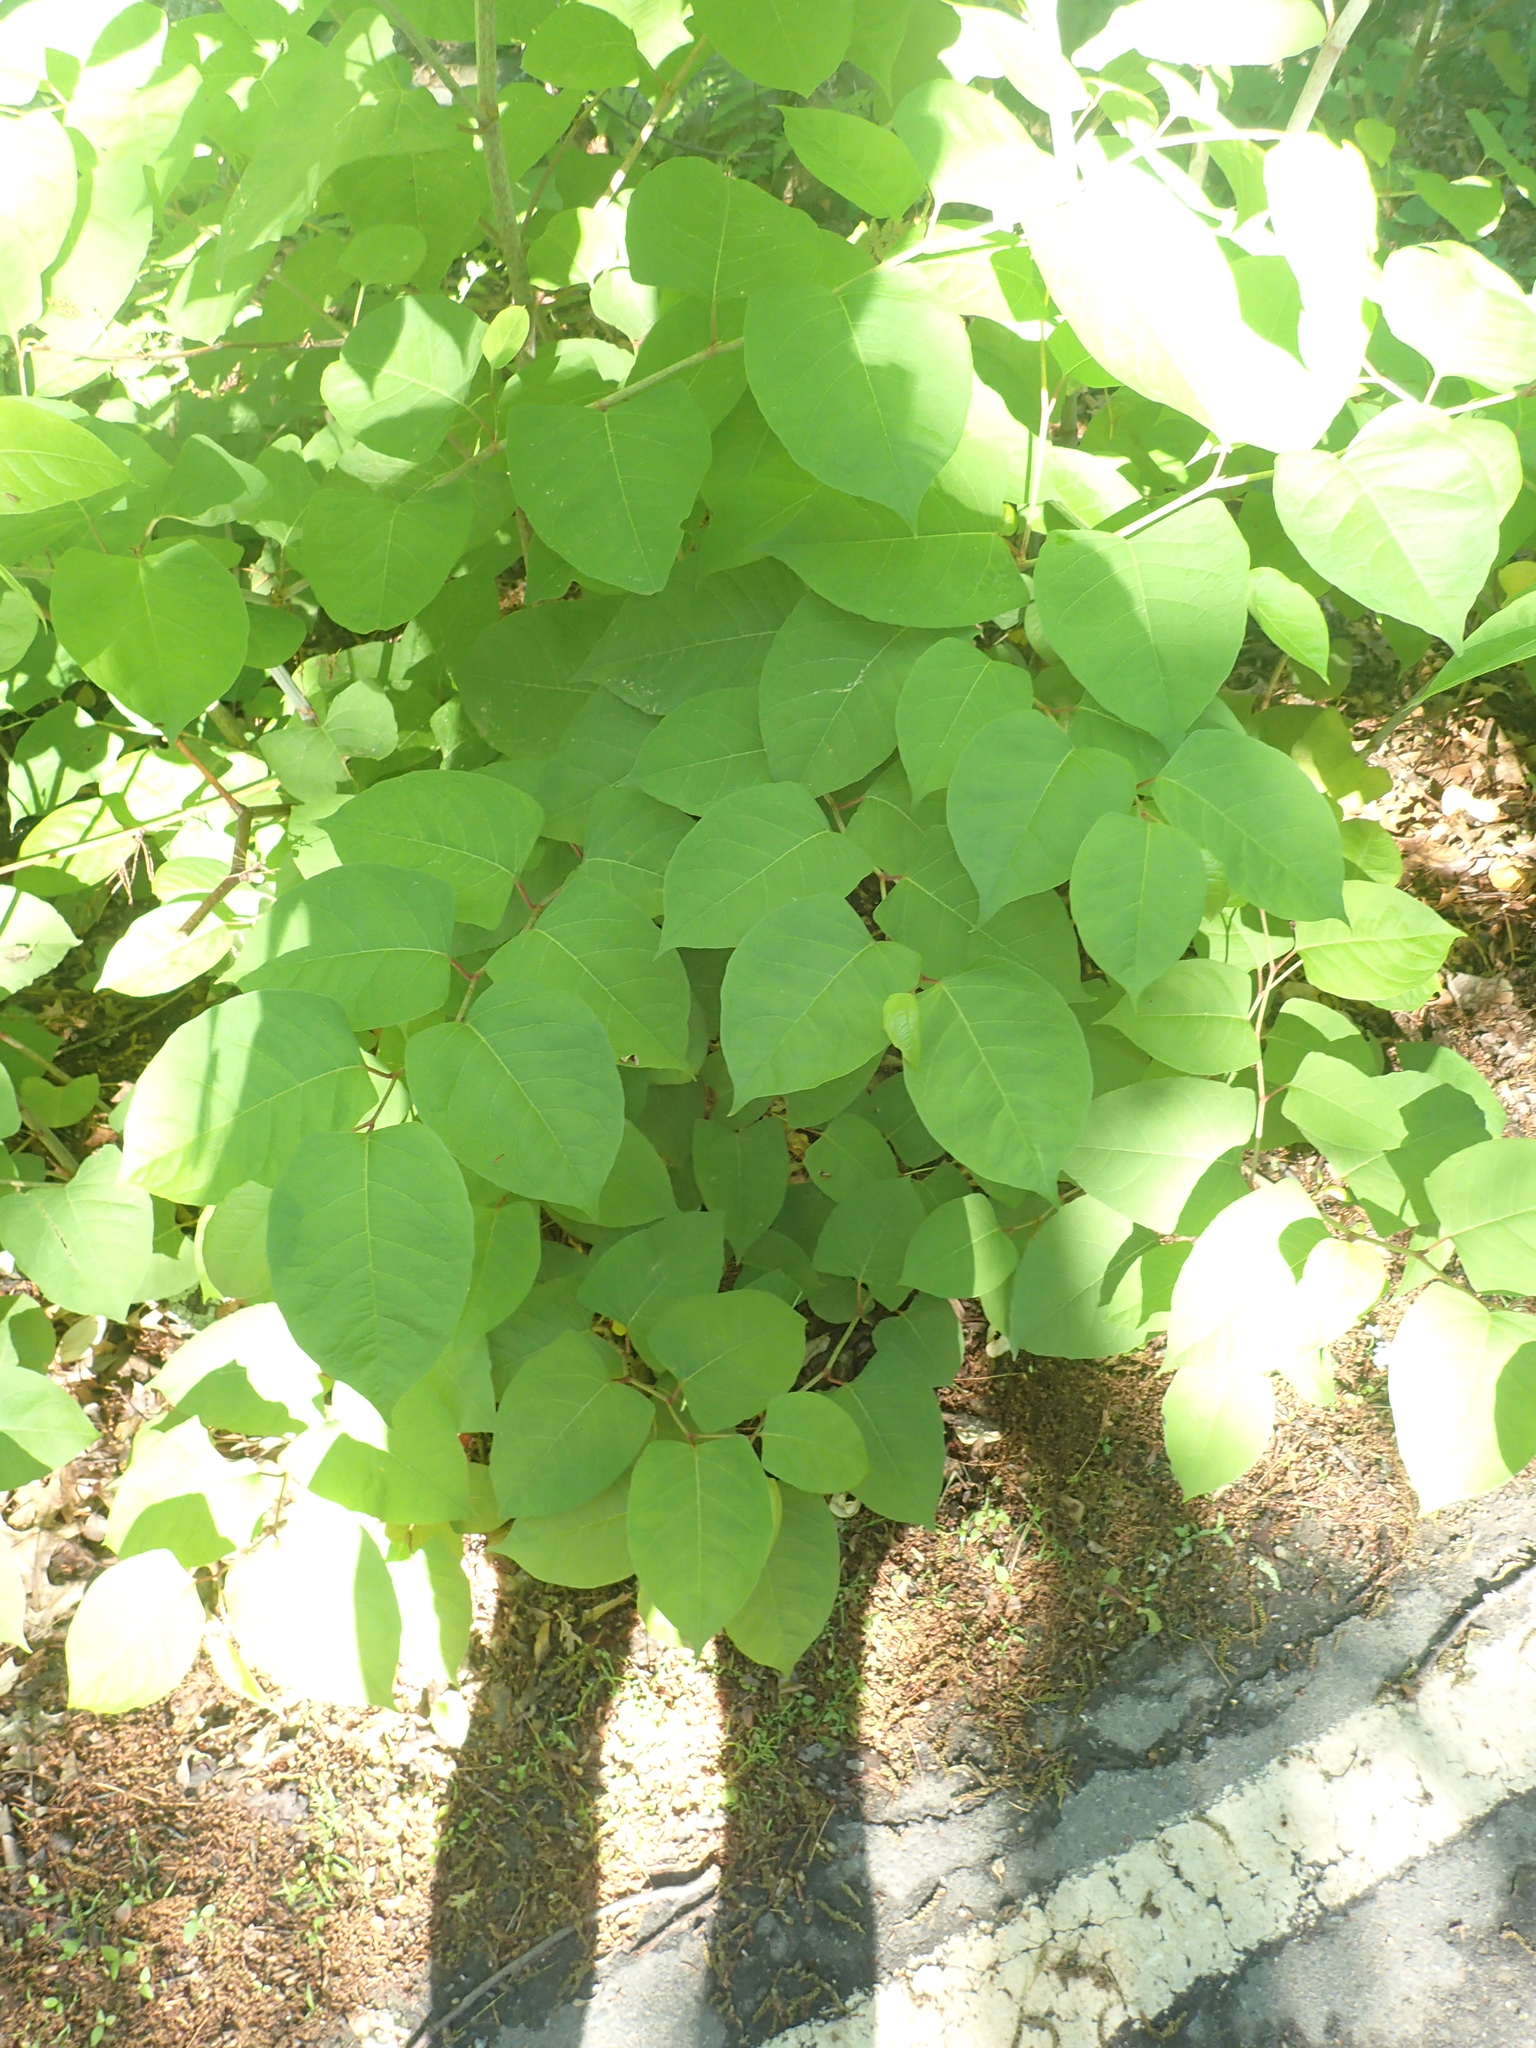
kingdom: Plantae
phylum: Tracheophyta
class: Magnoliopsida
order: Caryophyllales
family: Polygonaceae
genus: Reynoutria
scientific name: Reynoutria japonica
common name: Japanese knotweed
